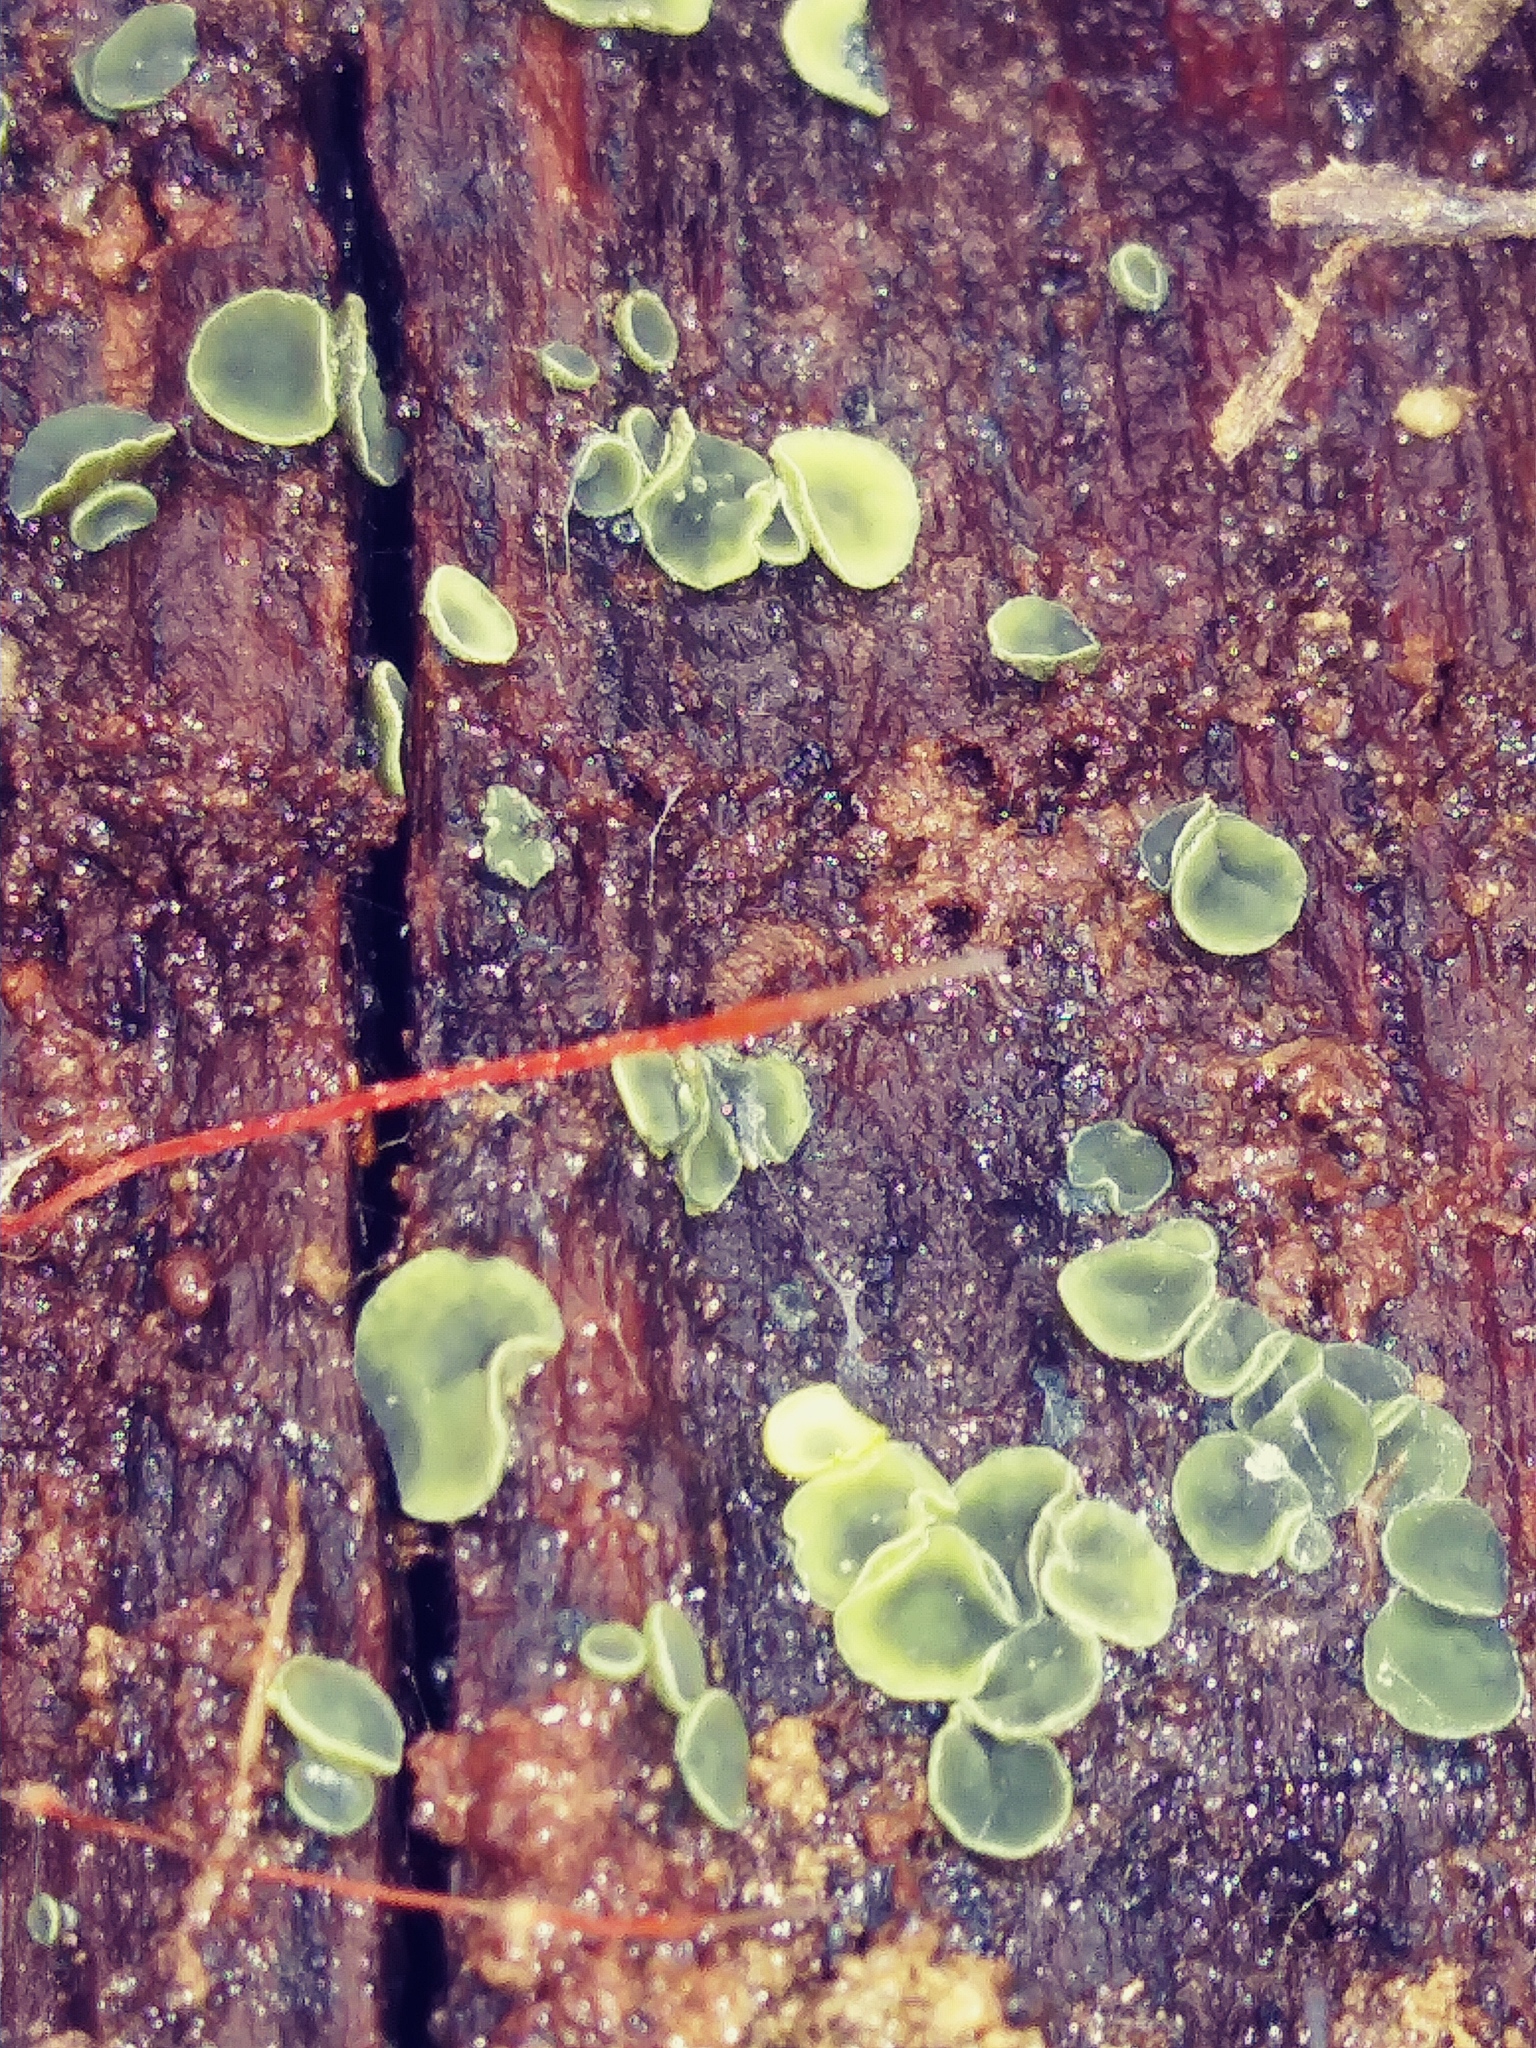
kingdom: Fungi
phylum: Ascomycota
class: Leotiomycetes
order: Helotiales
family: Chlorospleniaceae
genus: Chlorosplenium
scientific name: Chlorosplenium chlora
